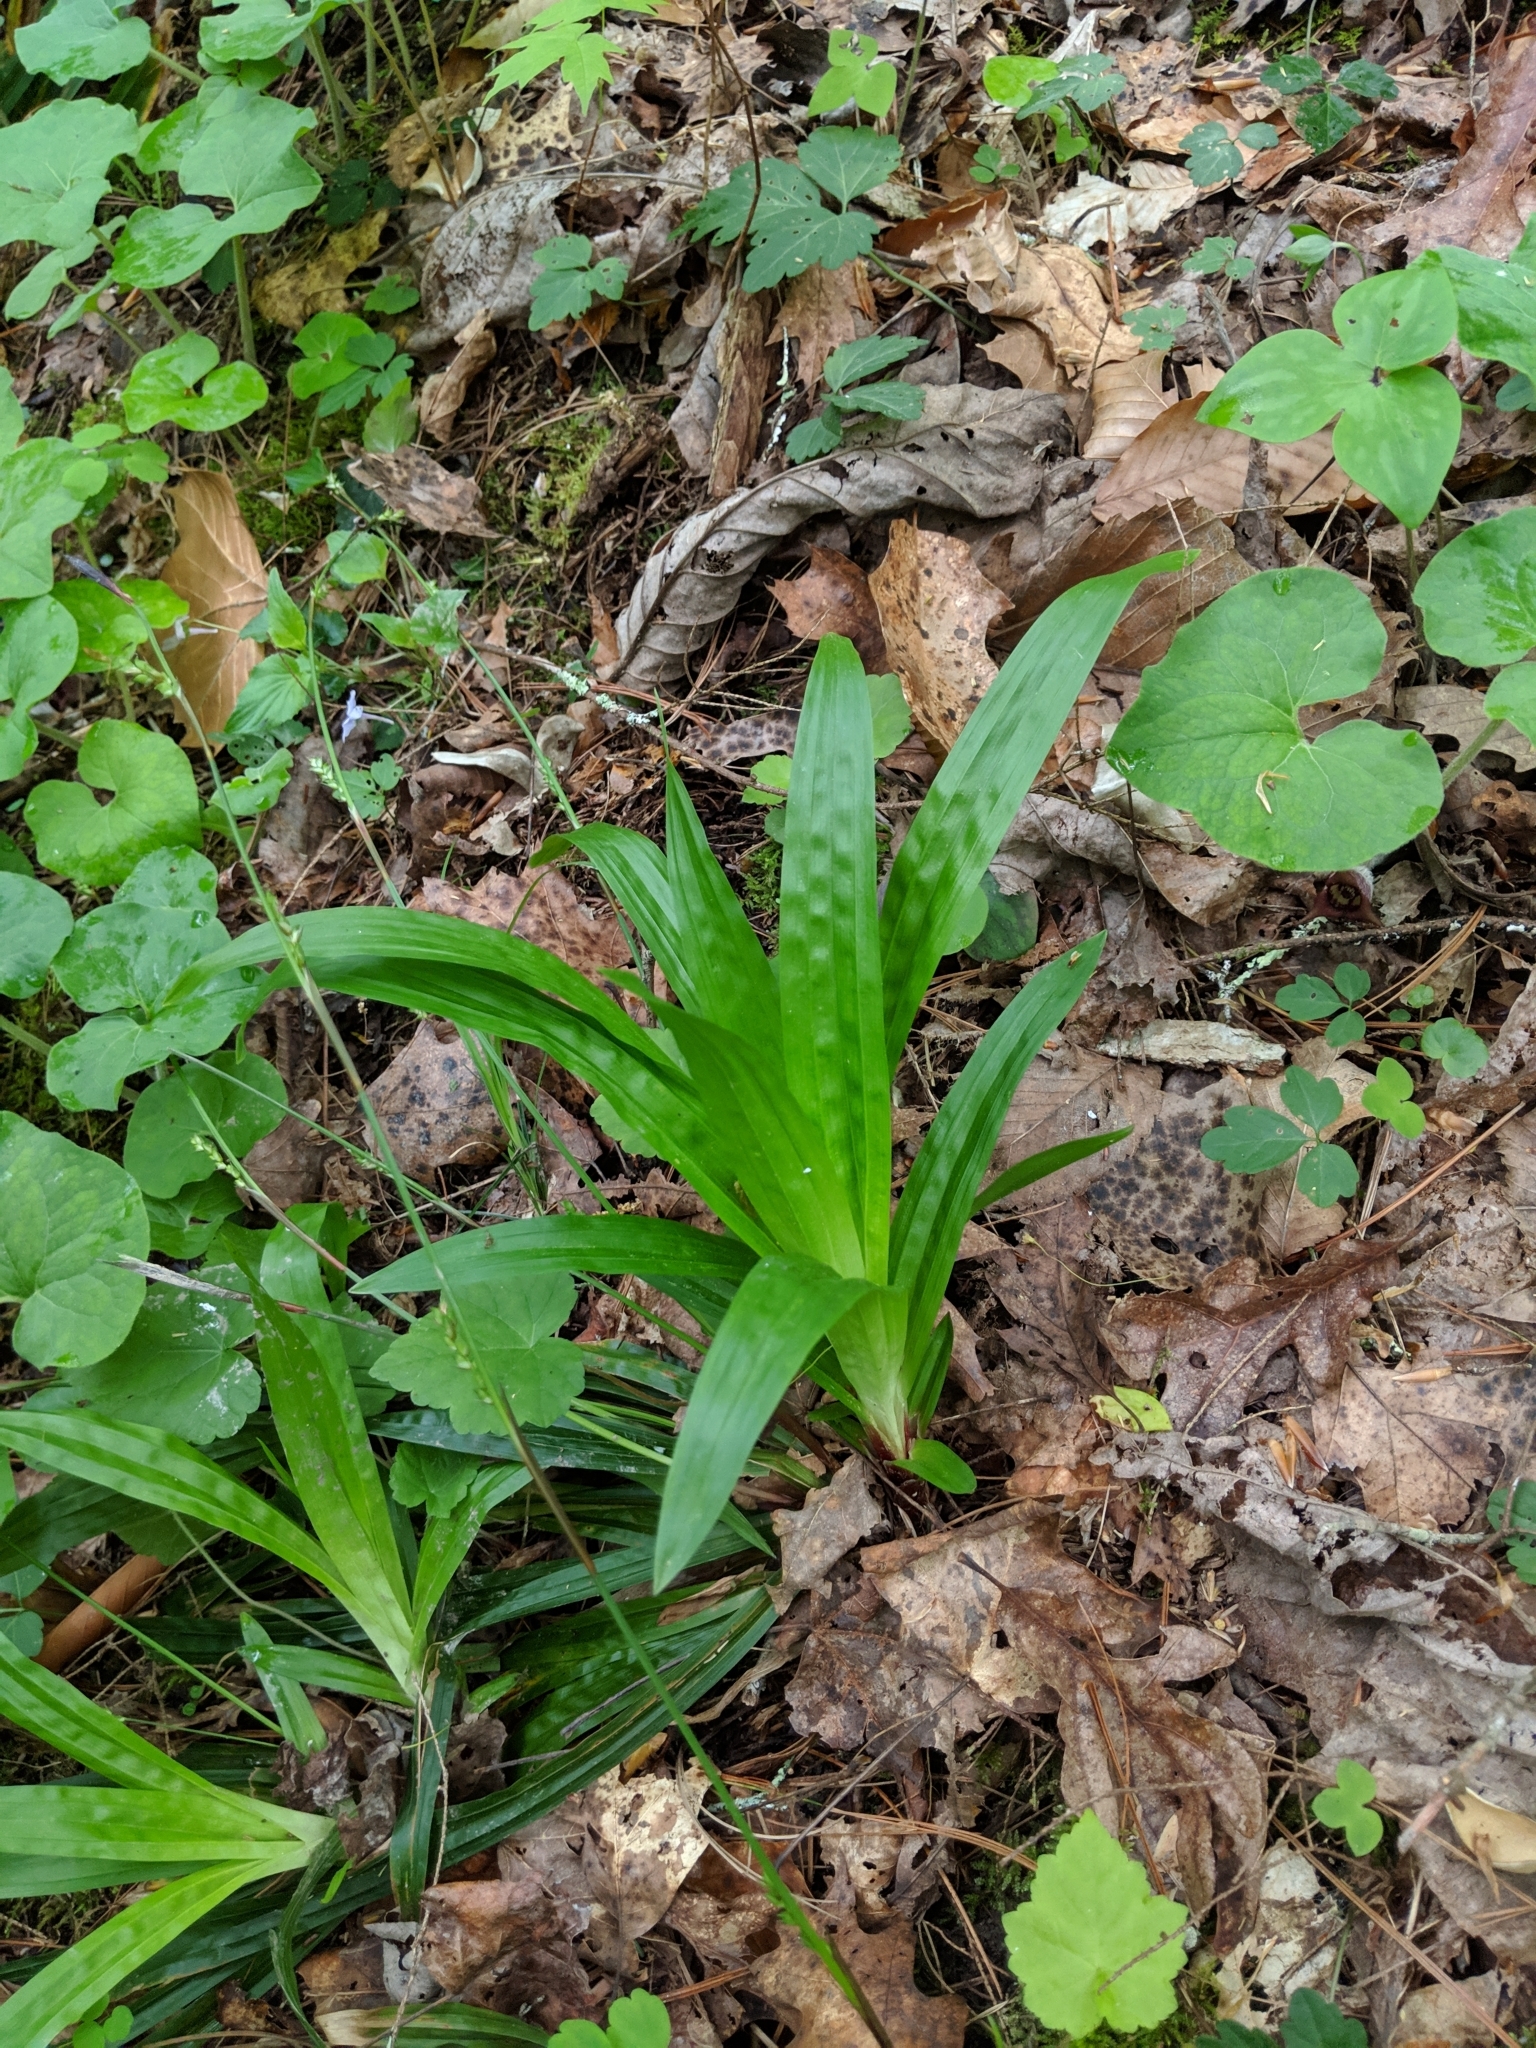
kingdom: Plantae
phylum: Tracheophyta
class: Liliopsida
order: Poales
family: Cyperaceae
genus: Carex
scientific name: Carex plantaginea
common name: Plantain-leaved sedge
